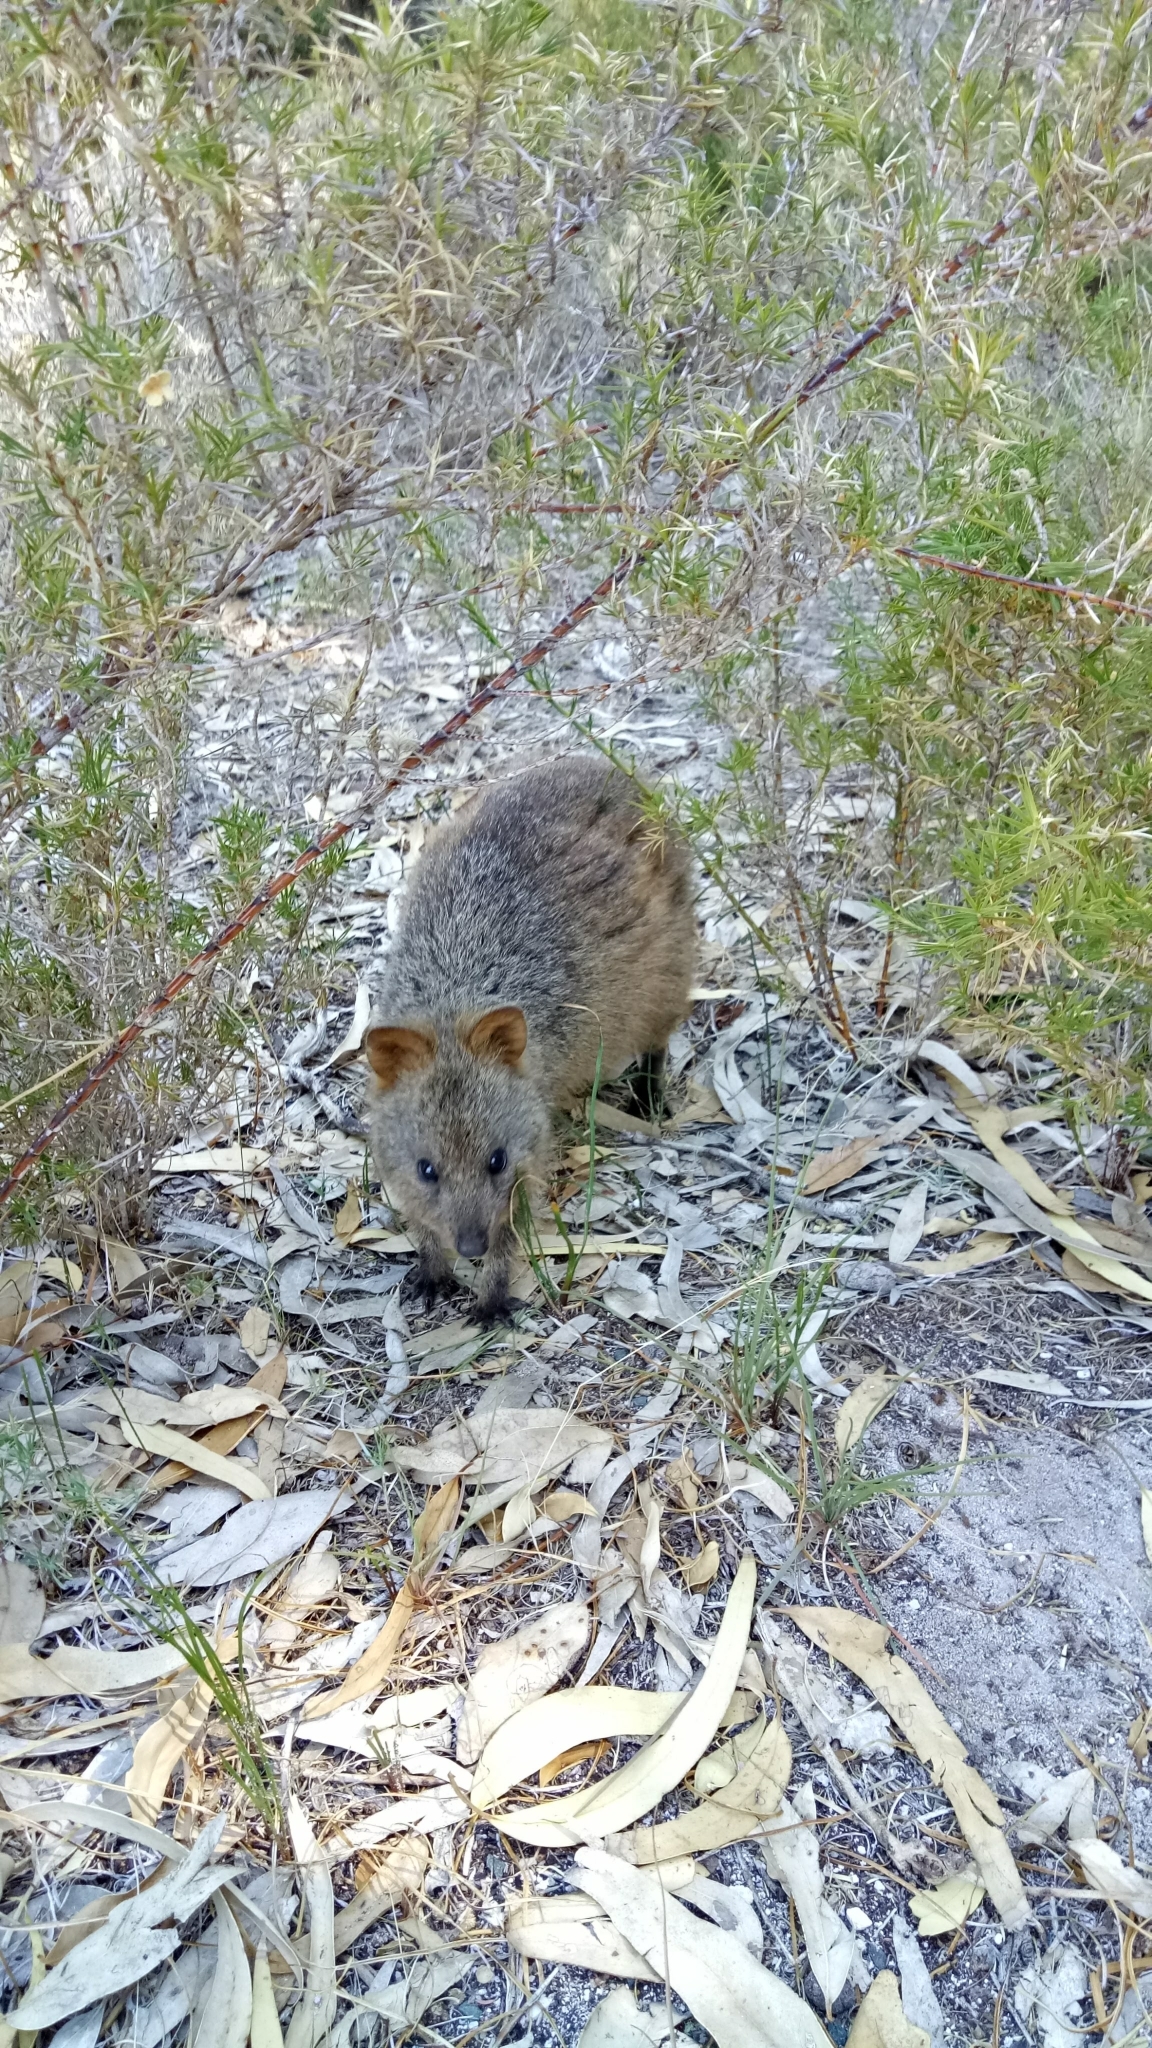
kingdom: Animalia
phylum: Chordata
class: Mammalia
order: Diprotodontia
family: Macropodidae
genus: Setonix
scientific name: Setonix brachyurus
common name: Quokka
